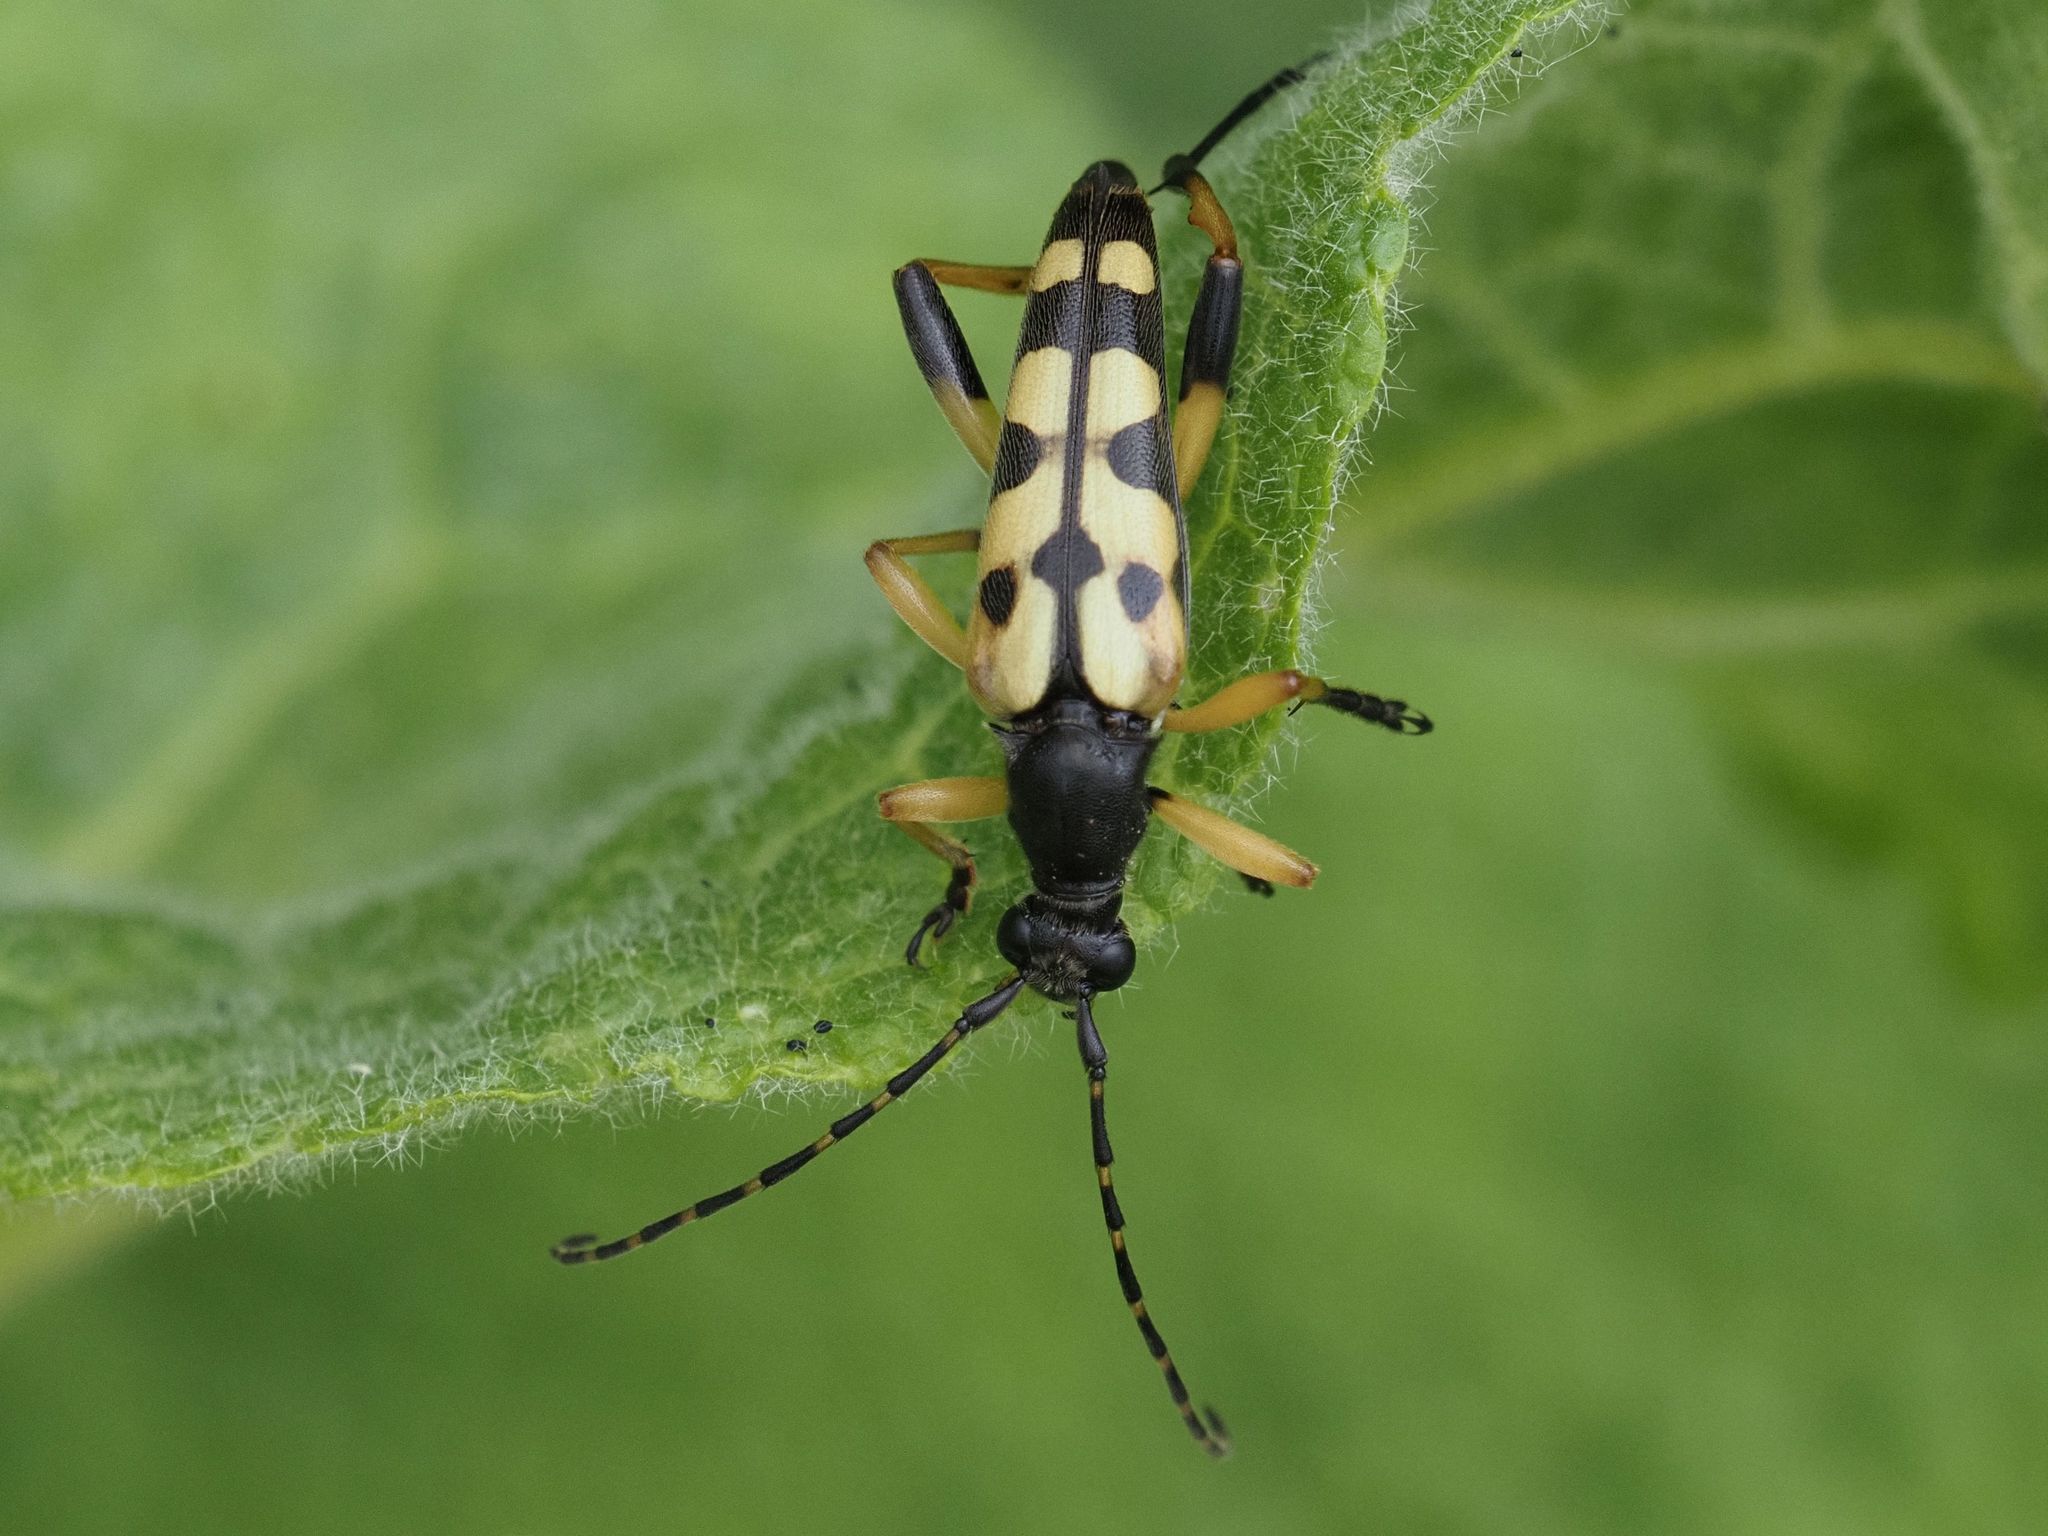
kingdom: Animalia
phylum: Arthropoda
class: Insecta
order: Coleoptera
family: Cerambycidae
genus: Rutpela
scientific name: Rutpela maculata
